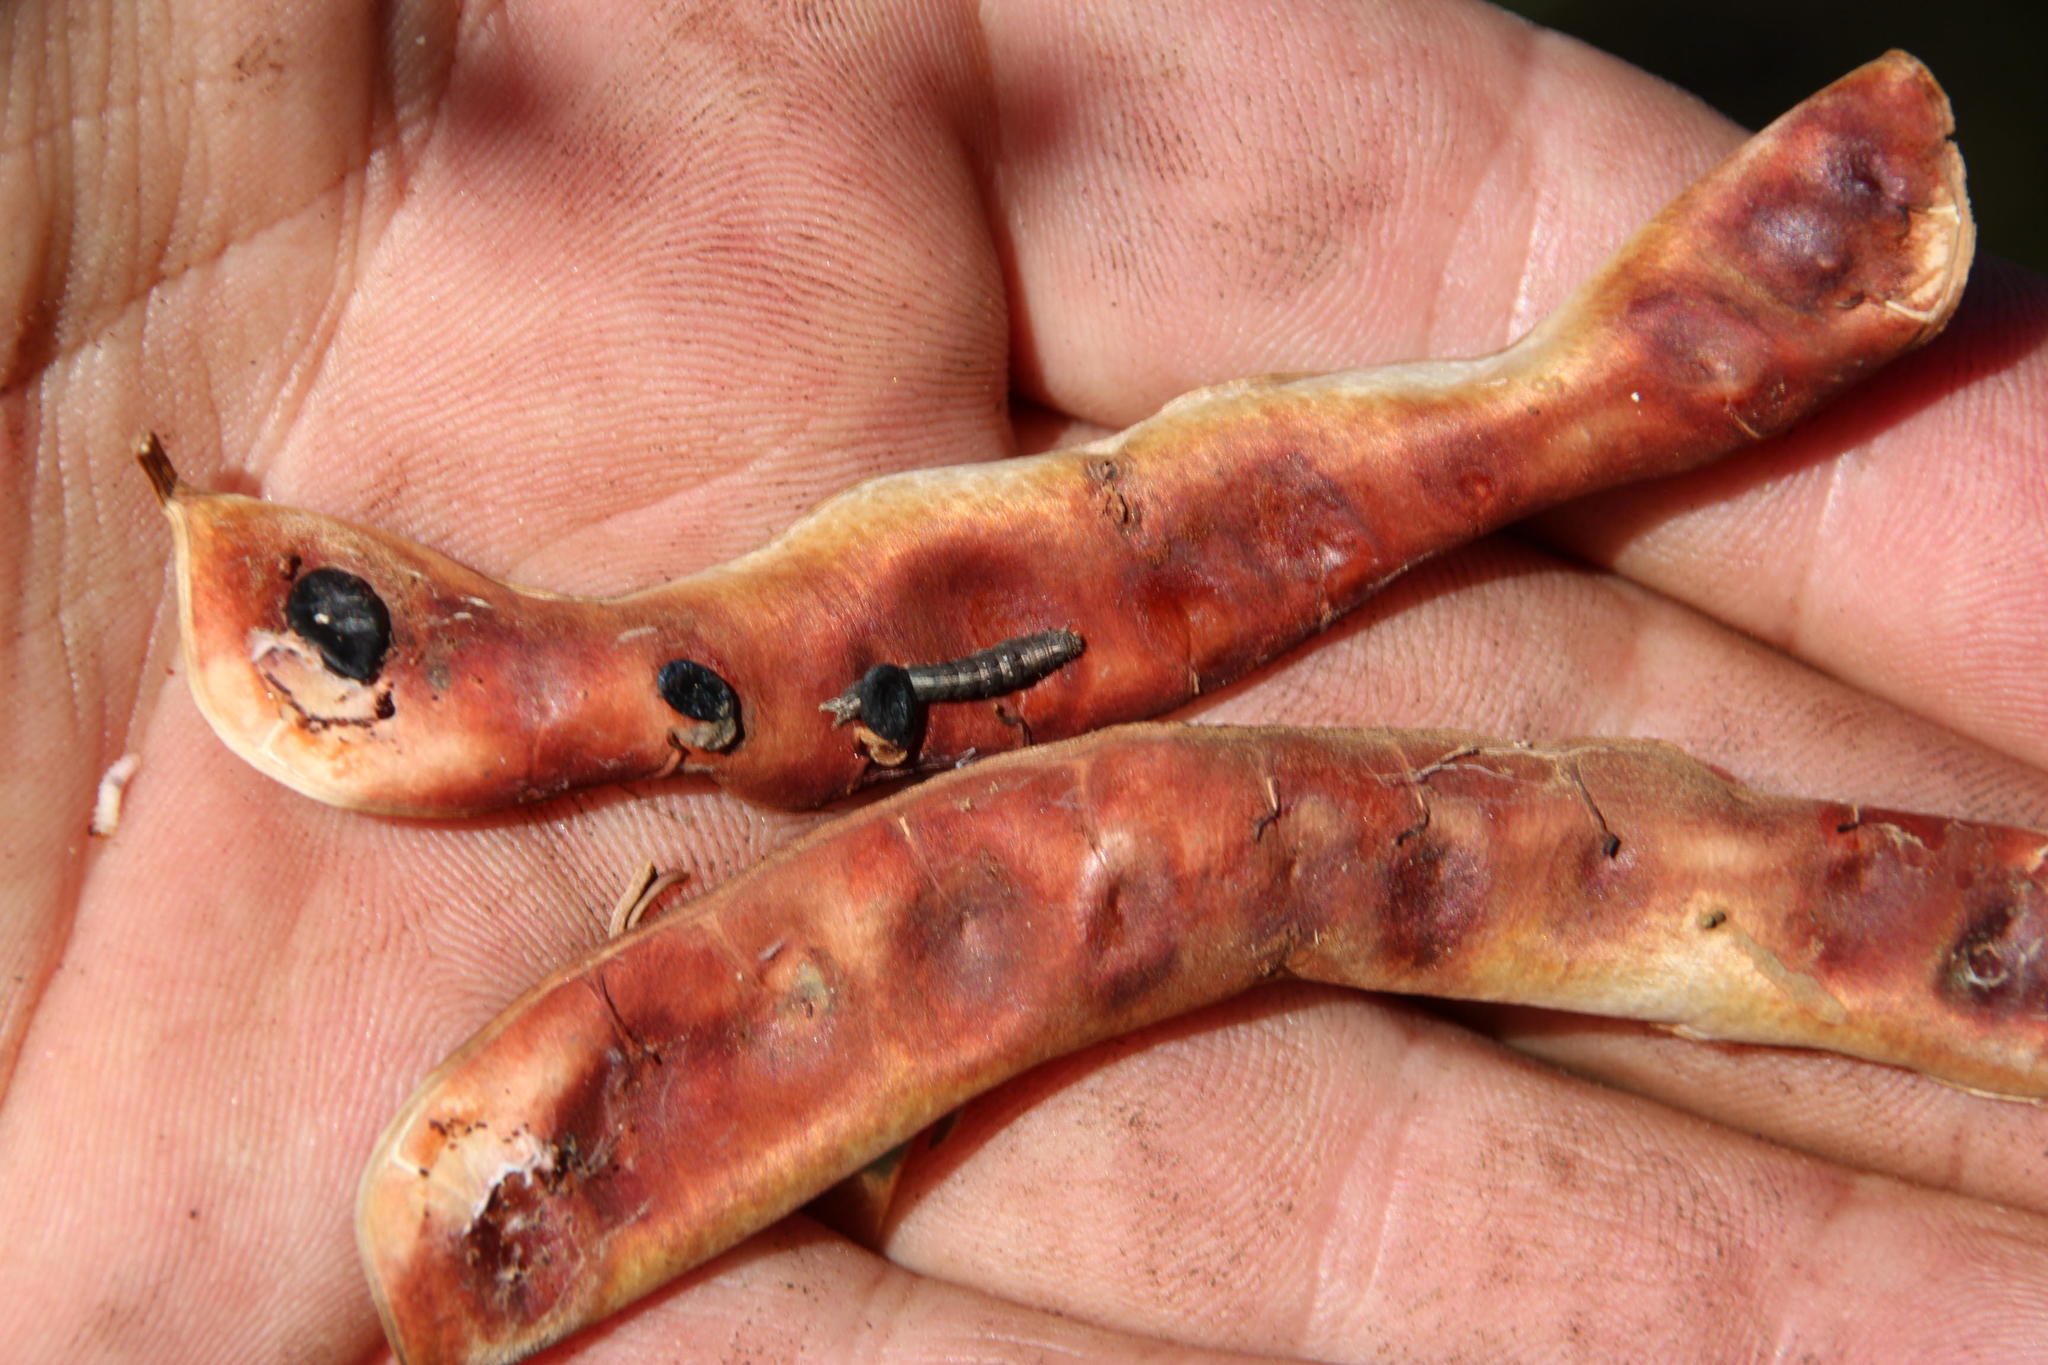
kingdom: Plantae
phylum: Tracheophyta
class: Magnoliopsida
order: Fabales
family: Fabaceae
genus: Acacia
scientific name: Acacia piligera
